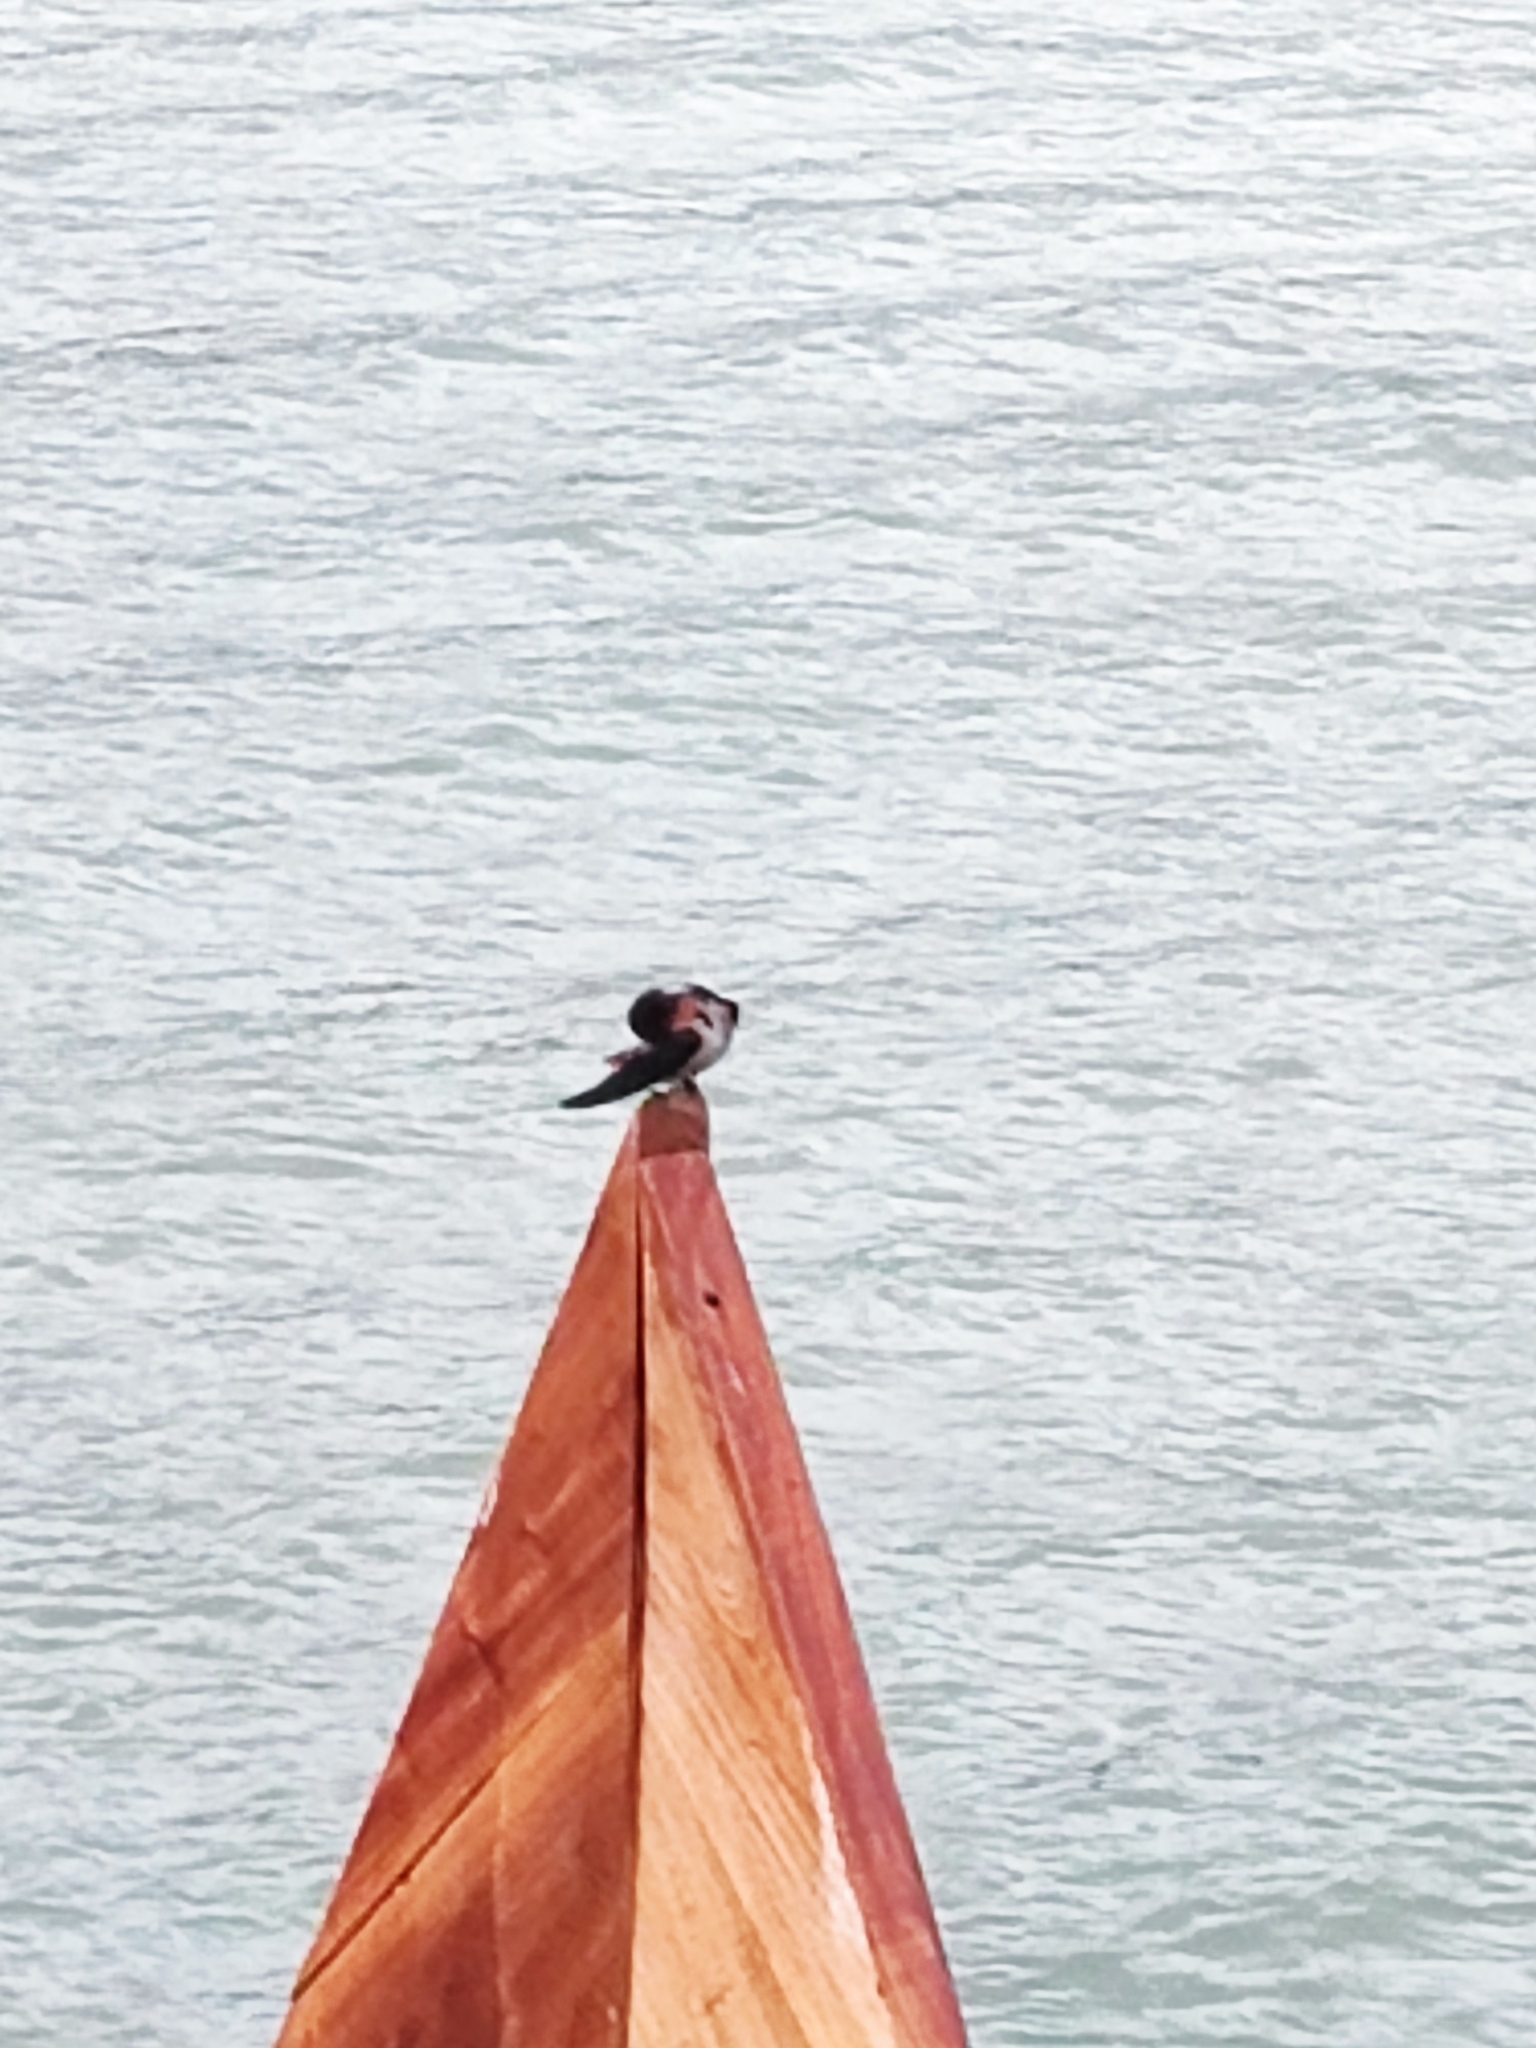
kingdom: Animalia
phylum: Chordata
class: Aves
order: Passeriformes
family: Hirundinidae
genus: Hirundo
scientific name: Hirundo tahitica
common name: Pacific swallow
